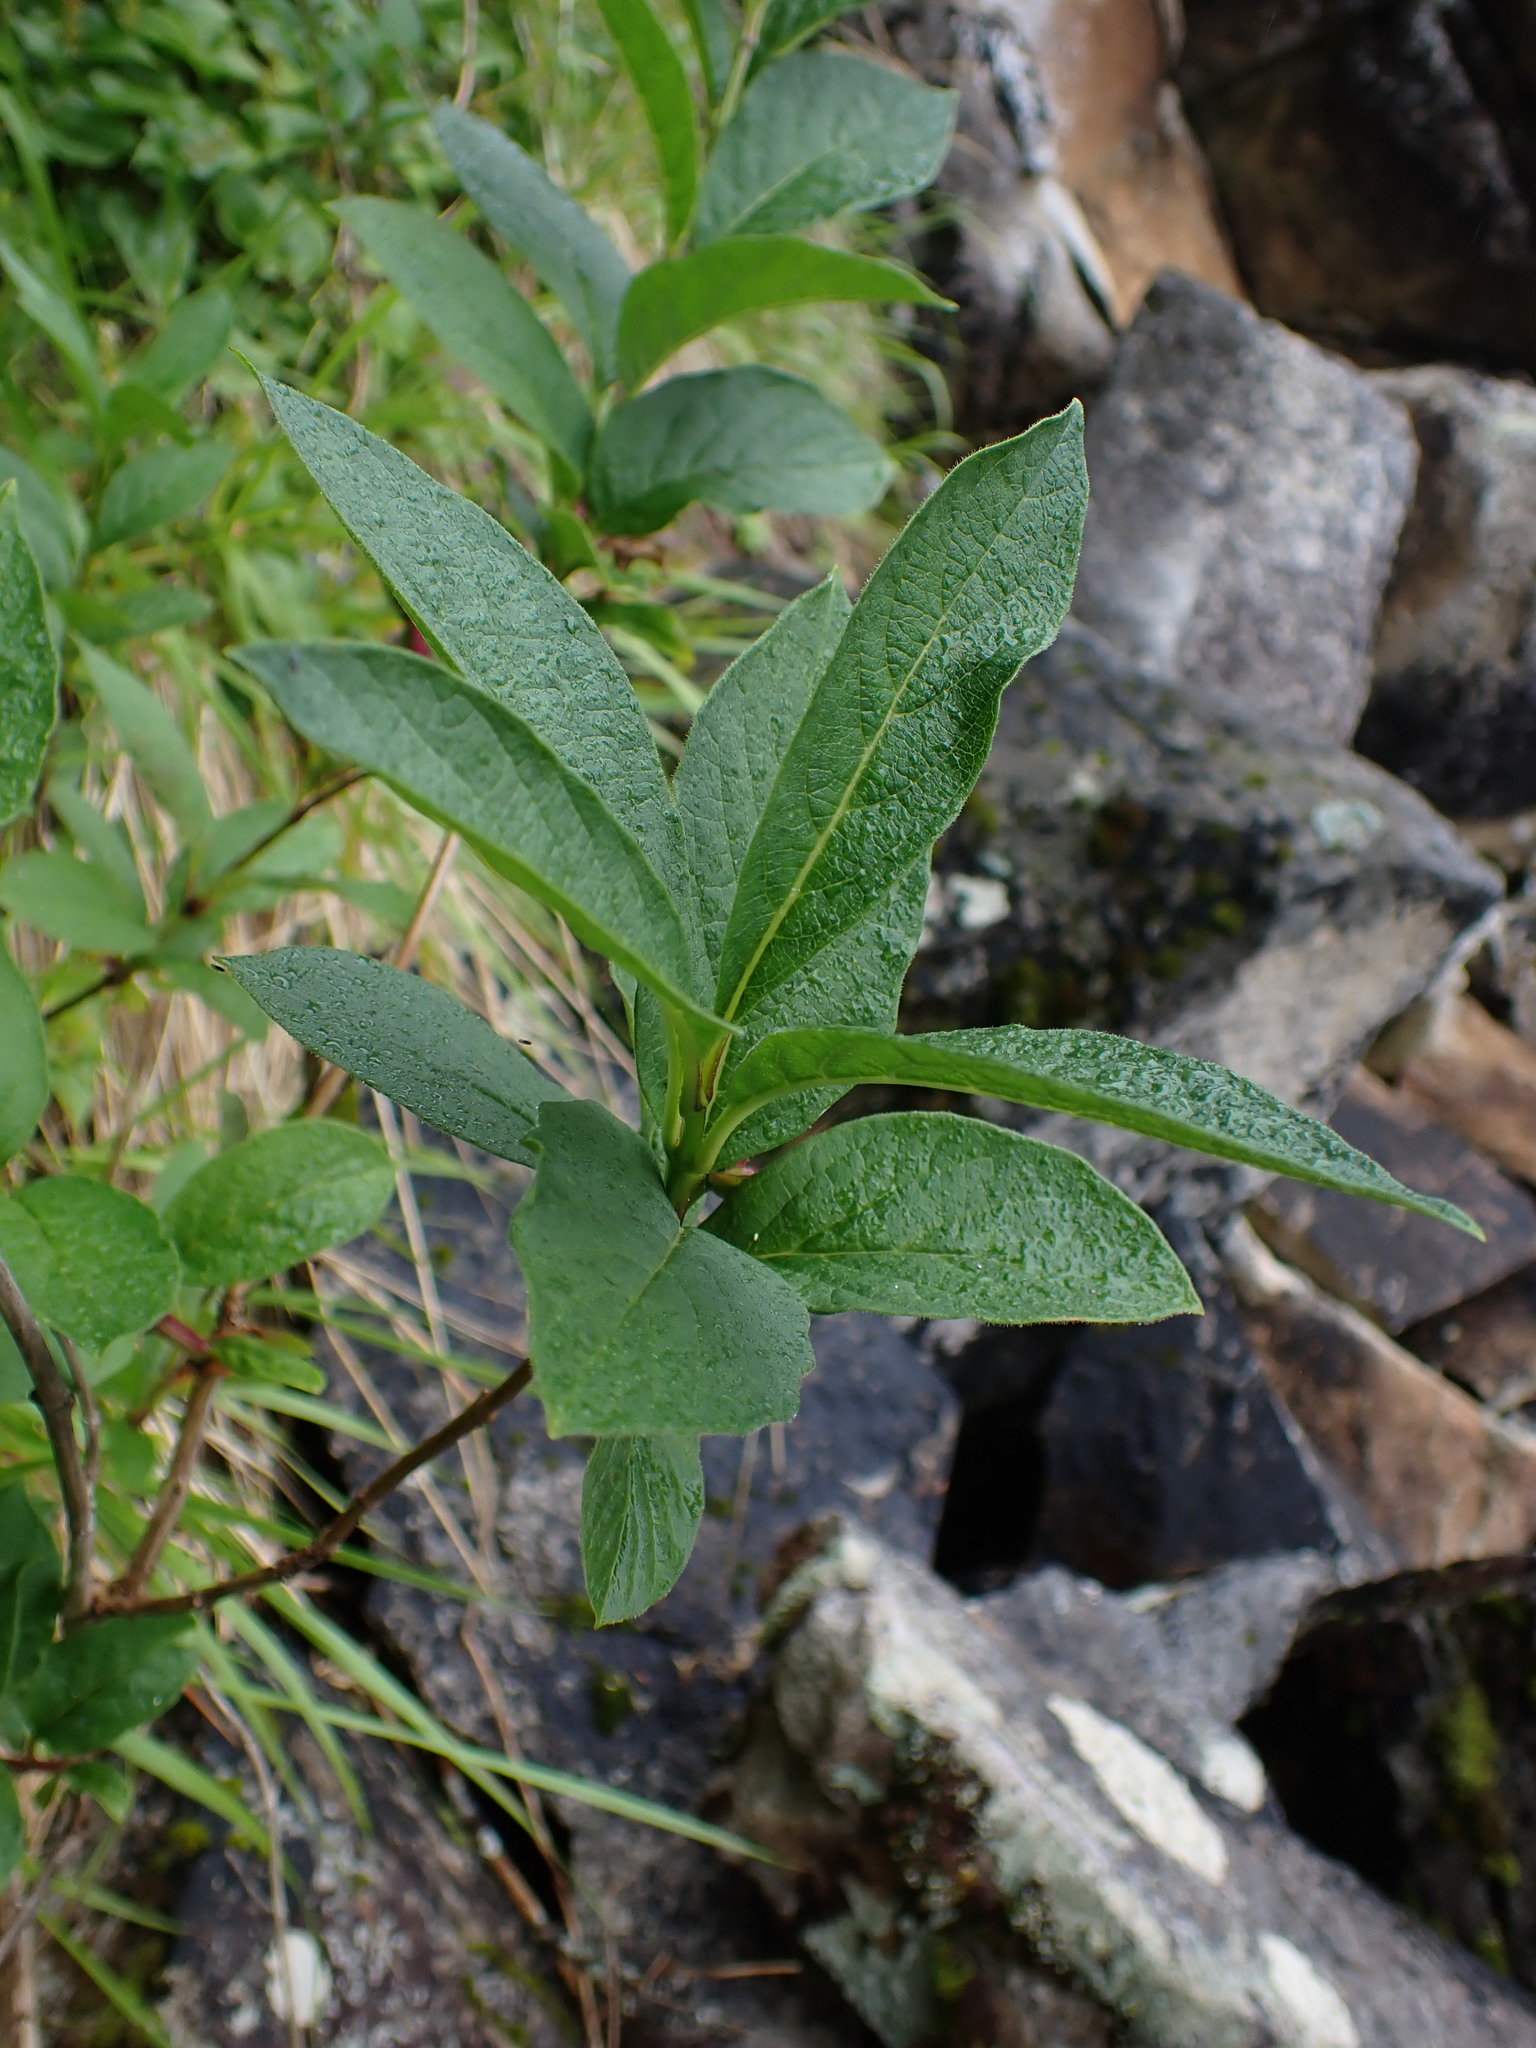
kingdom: Plantae
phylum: Tracheophyta
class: Magnoliopsida
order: Dipsacales
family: Caprifoliaceae
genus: Lonicera
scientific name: Lonicera involucrata
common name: Californian honeysuckle
